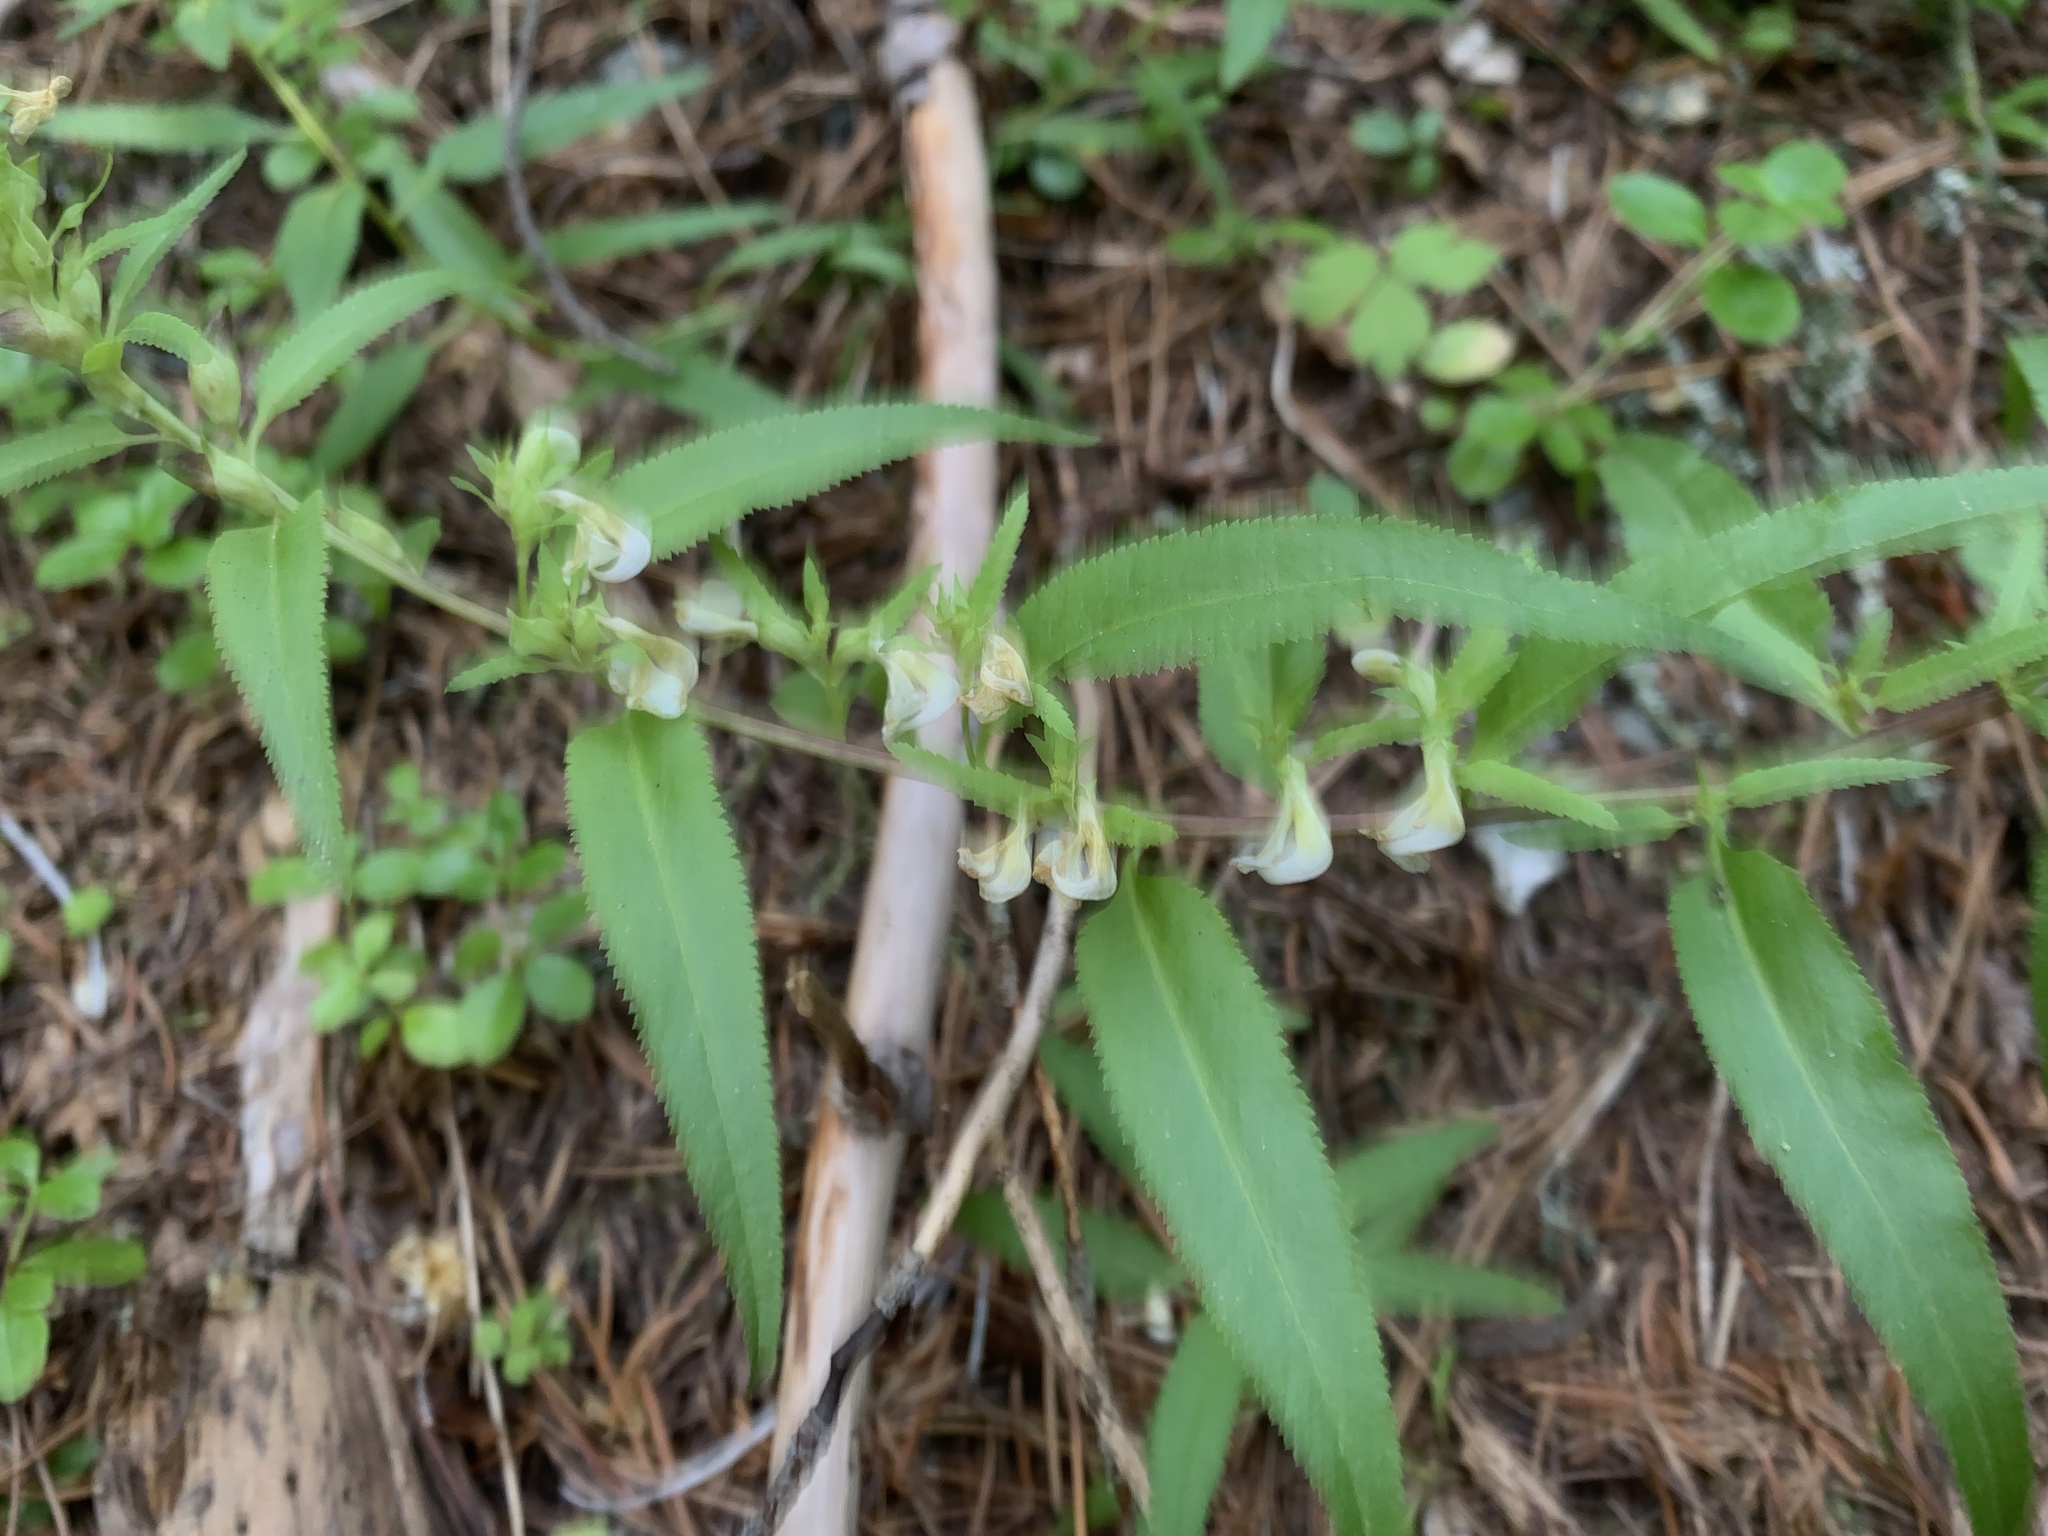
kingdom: Plantae
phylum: Tracheophyta
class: Magnoliopsida
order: Lamiales
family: Orobanchaceae
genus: Pedicularis
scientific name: Pedicularis racemosa
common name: Leafy lousewort
